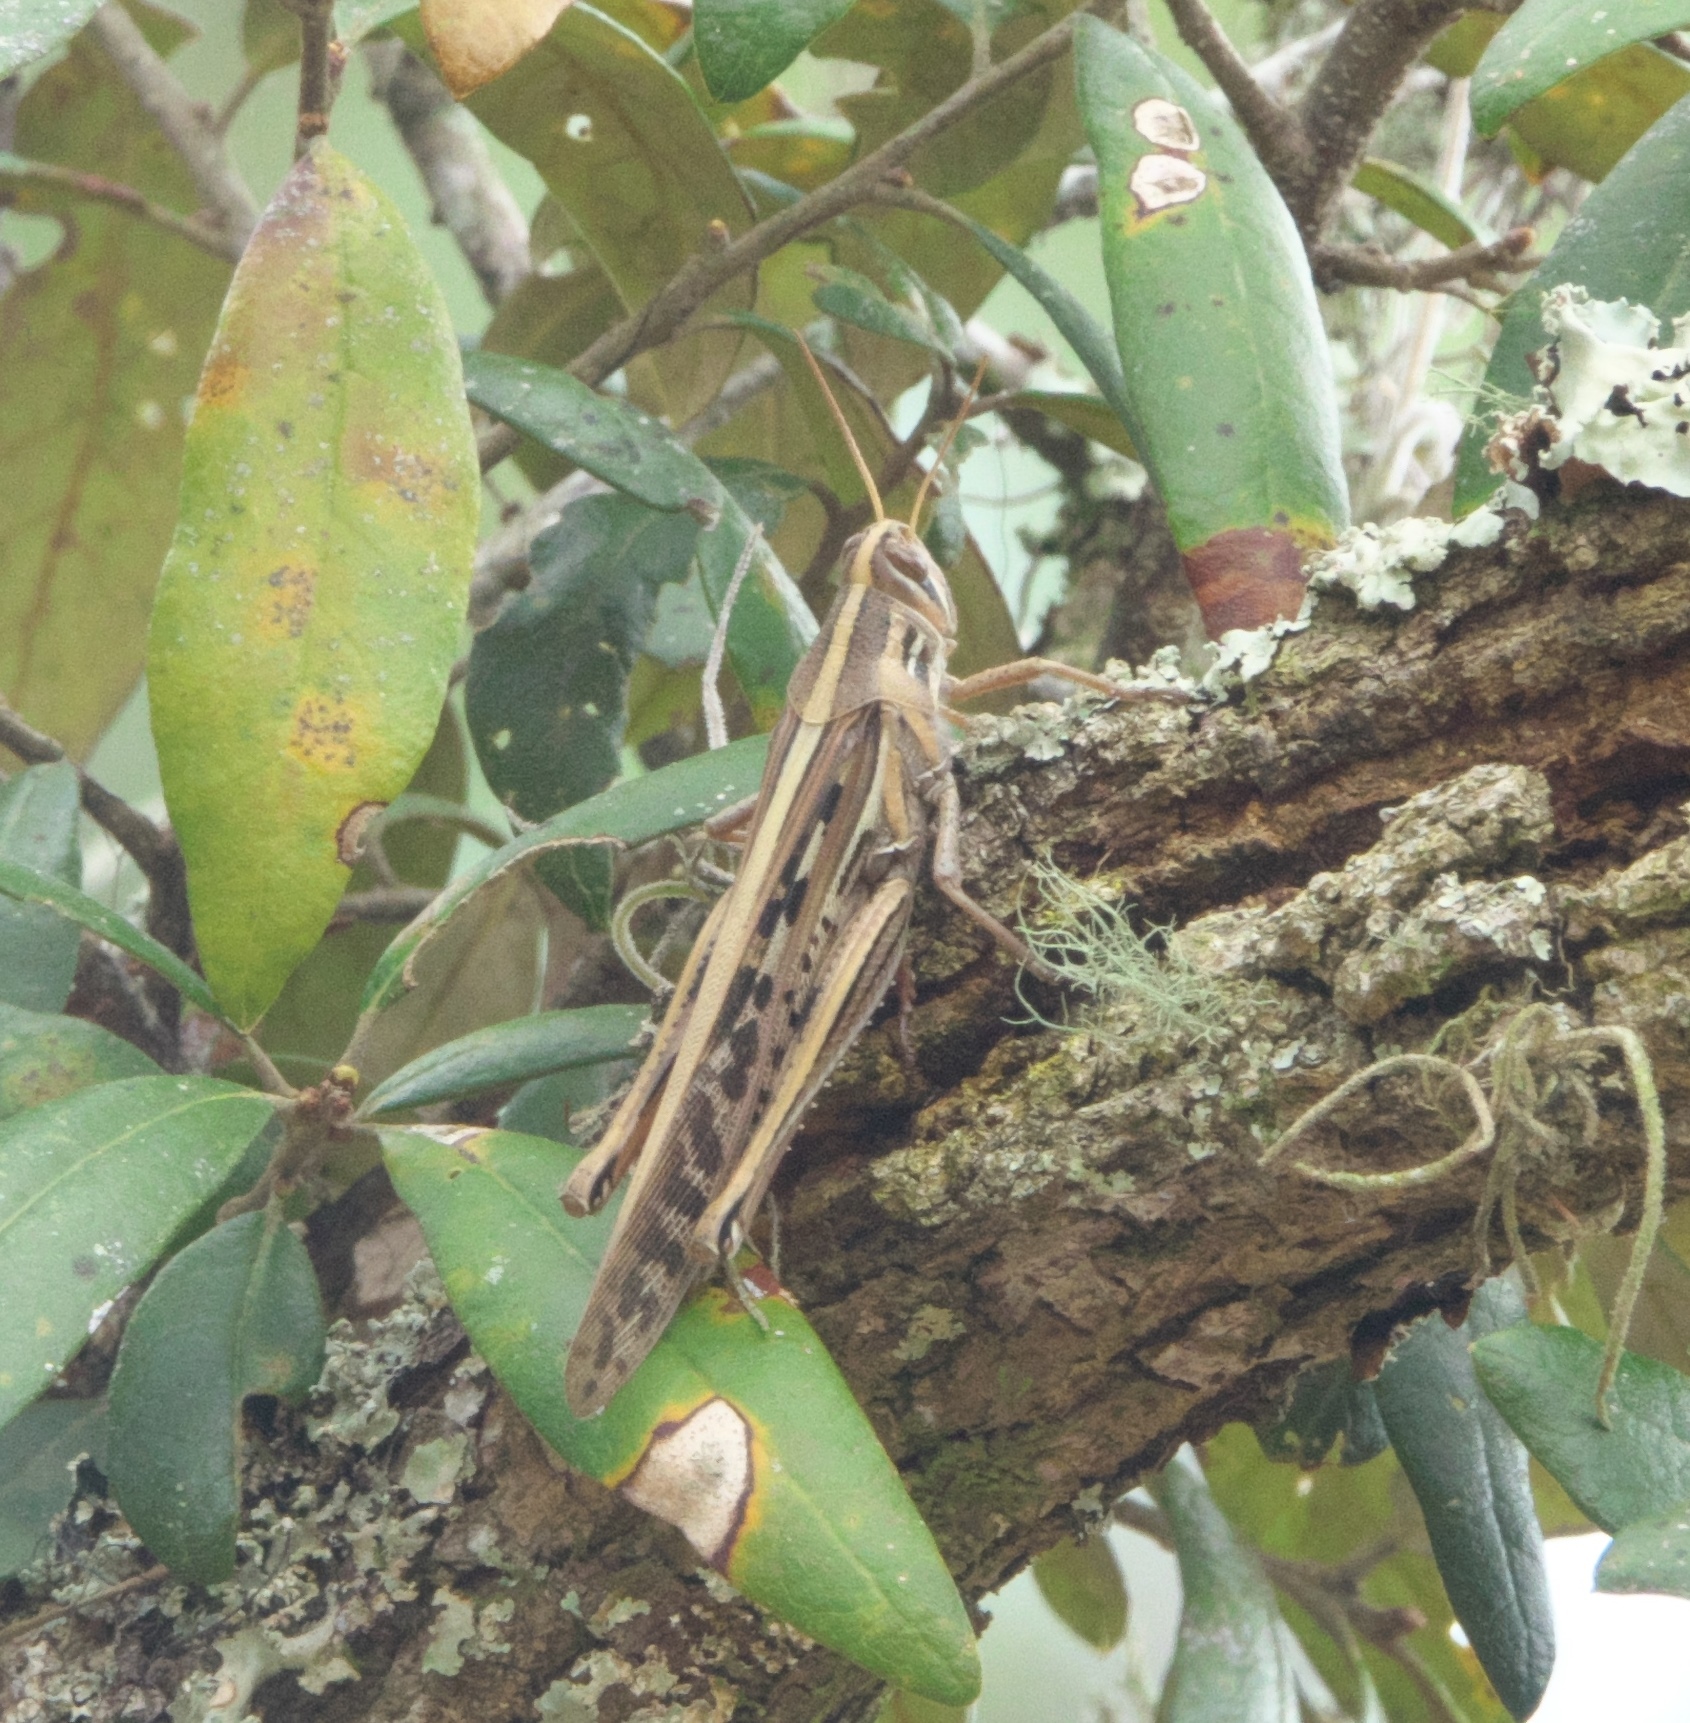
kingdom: Animalia
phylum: Arthropoda
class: Insecta
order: Orthoptera
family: Acrididae
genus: Schistocerca
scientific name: Schistocerca americana
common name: American bird locust
